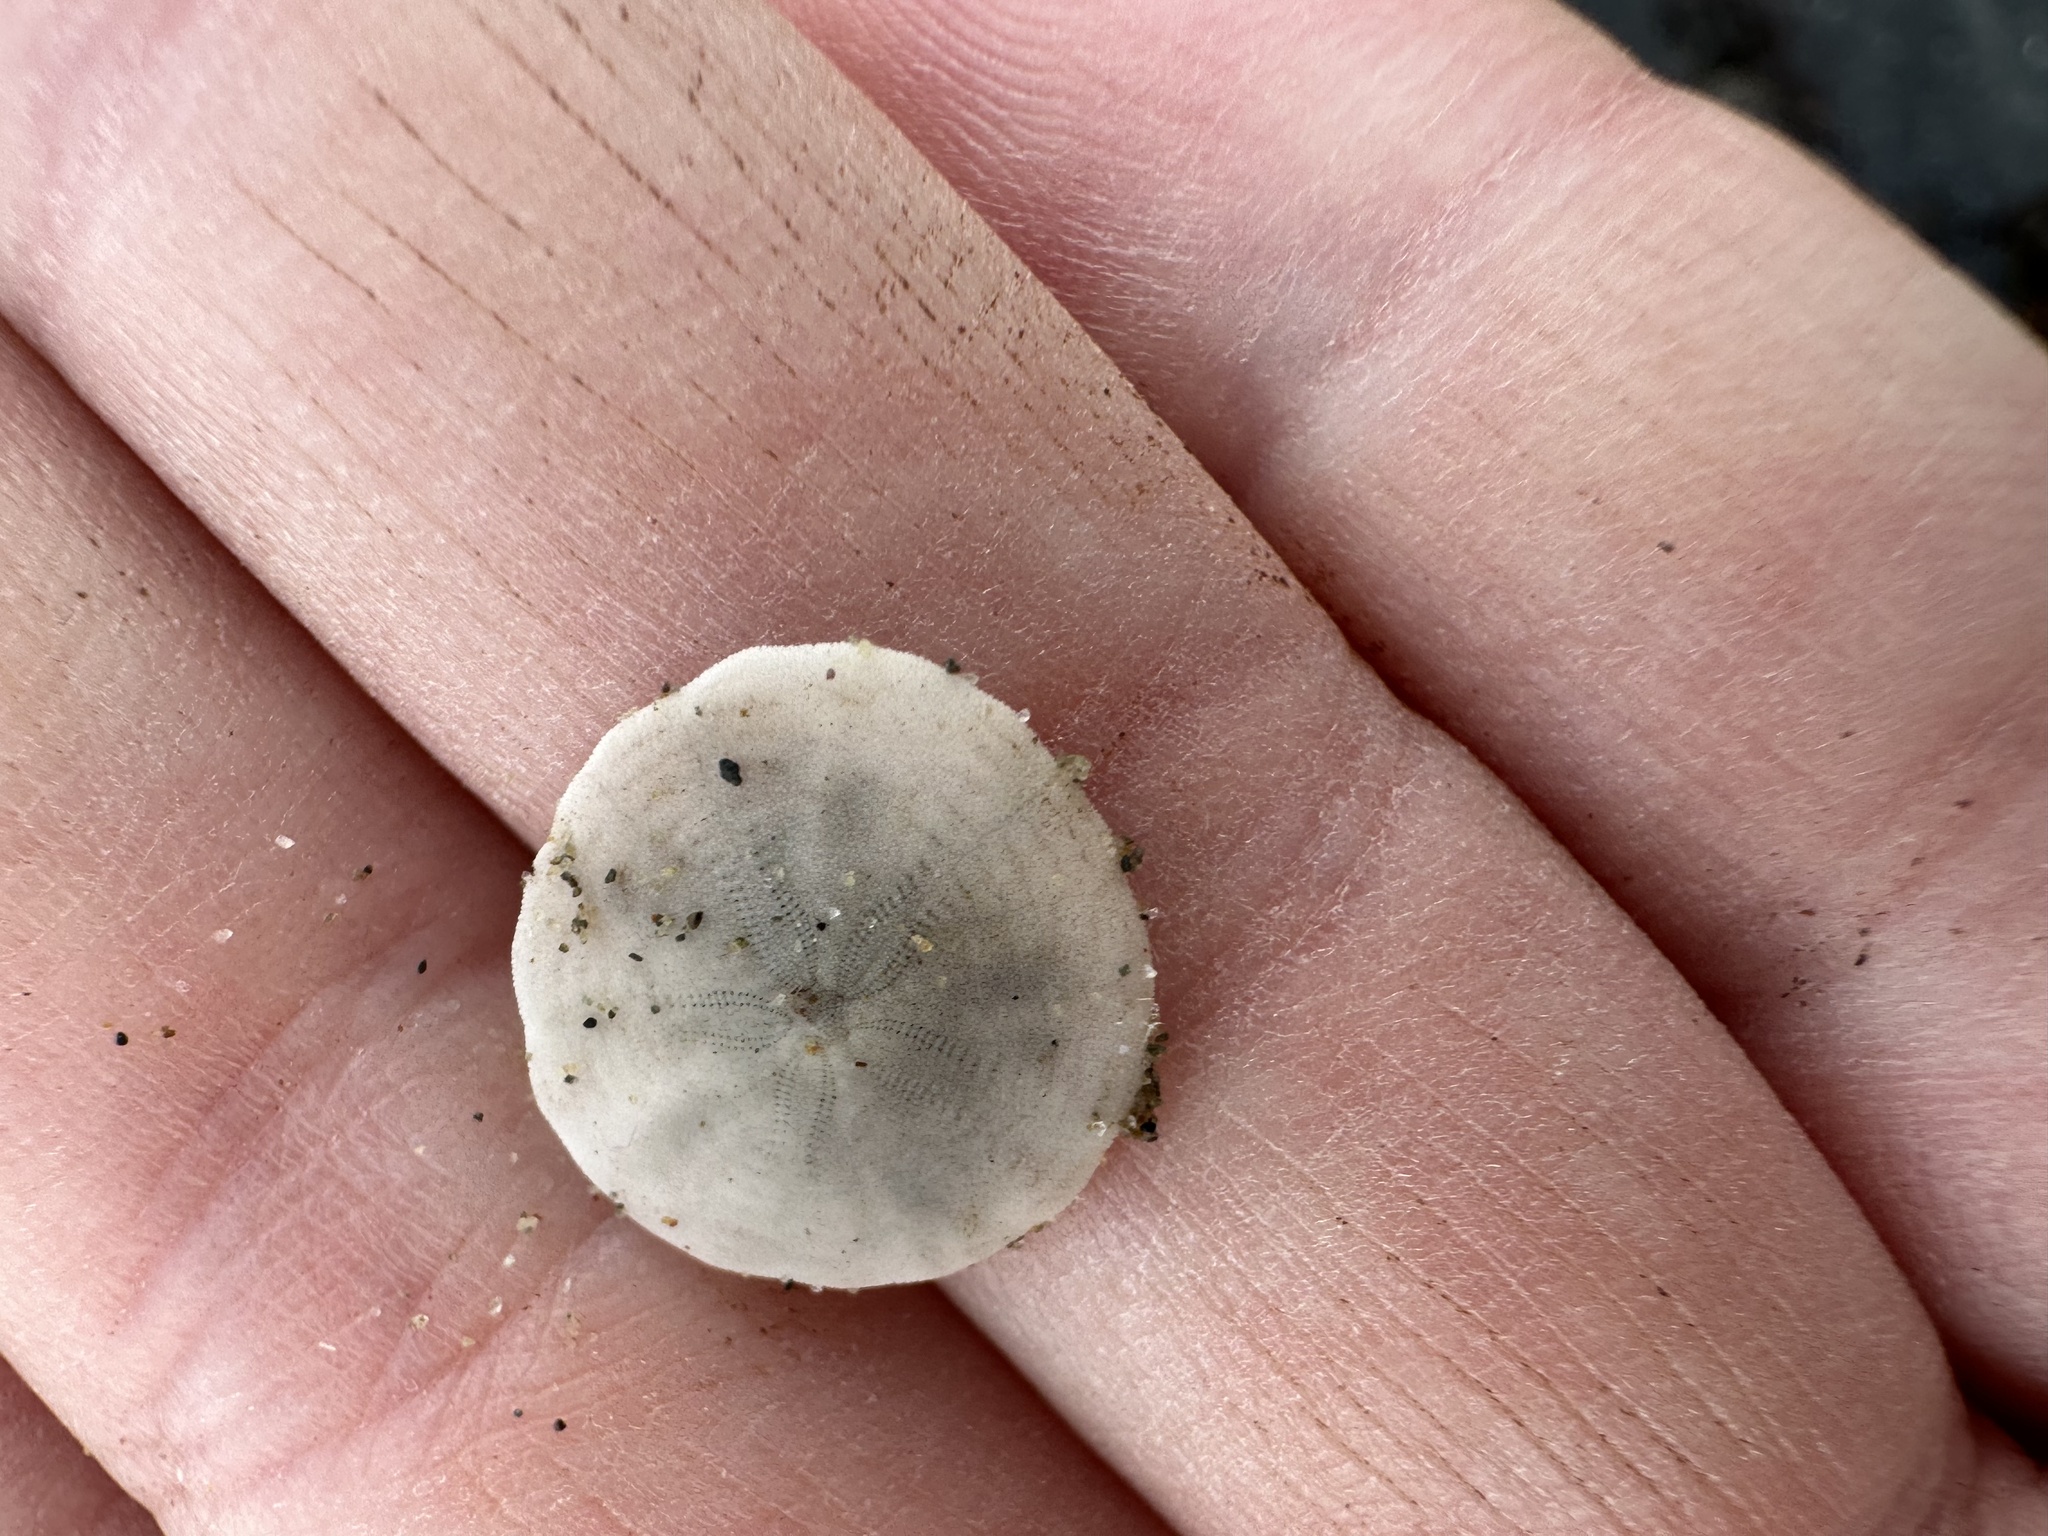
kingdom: Animalia
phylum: Echinodermata
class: Echinoidea
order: Echinolampadacea
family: Echinarachniidae
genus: Echinarachnius
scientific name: Echinarachnius parma
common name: Common sand dollar
